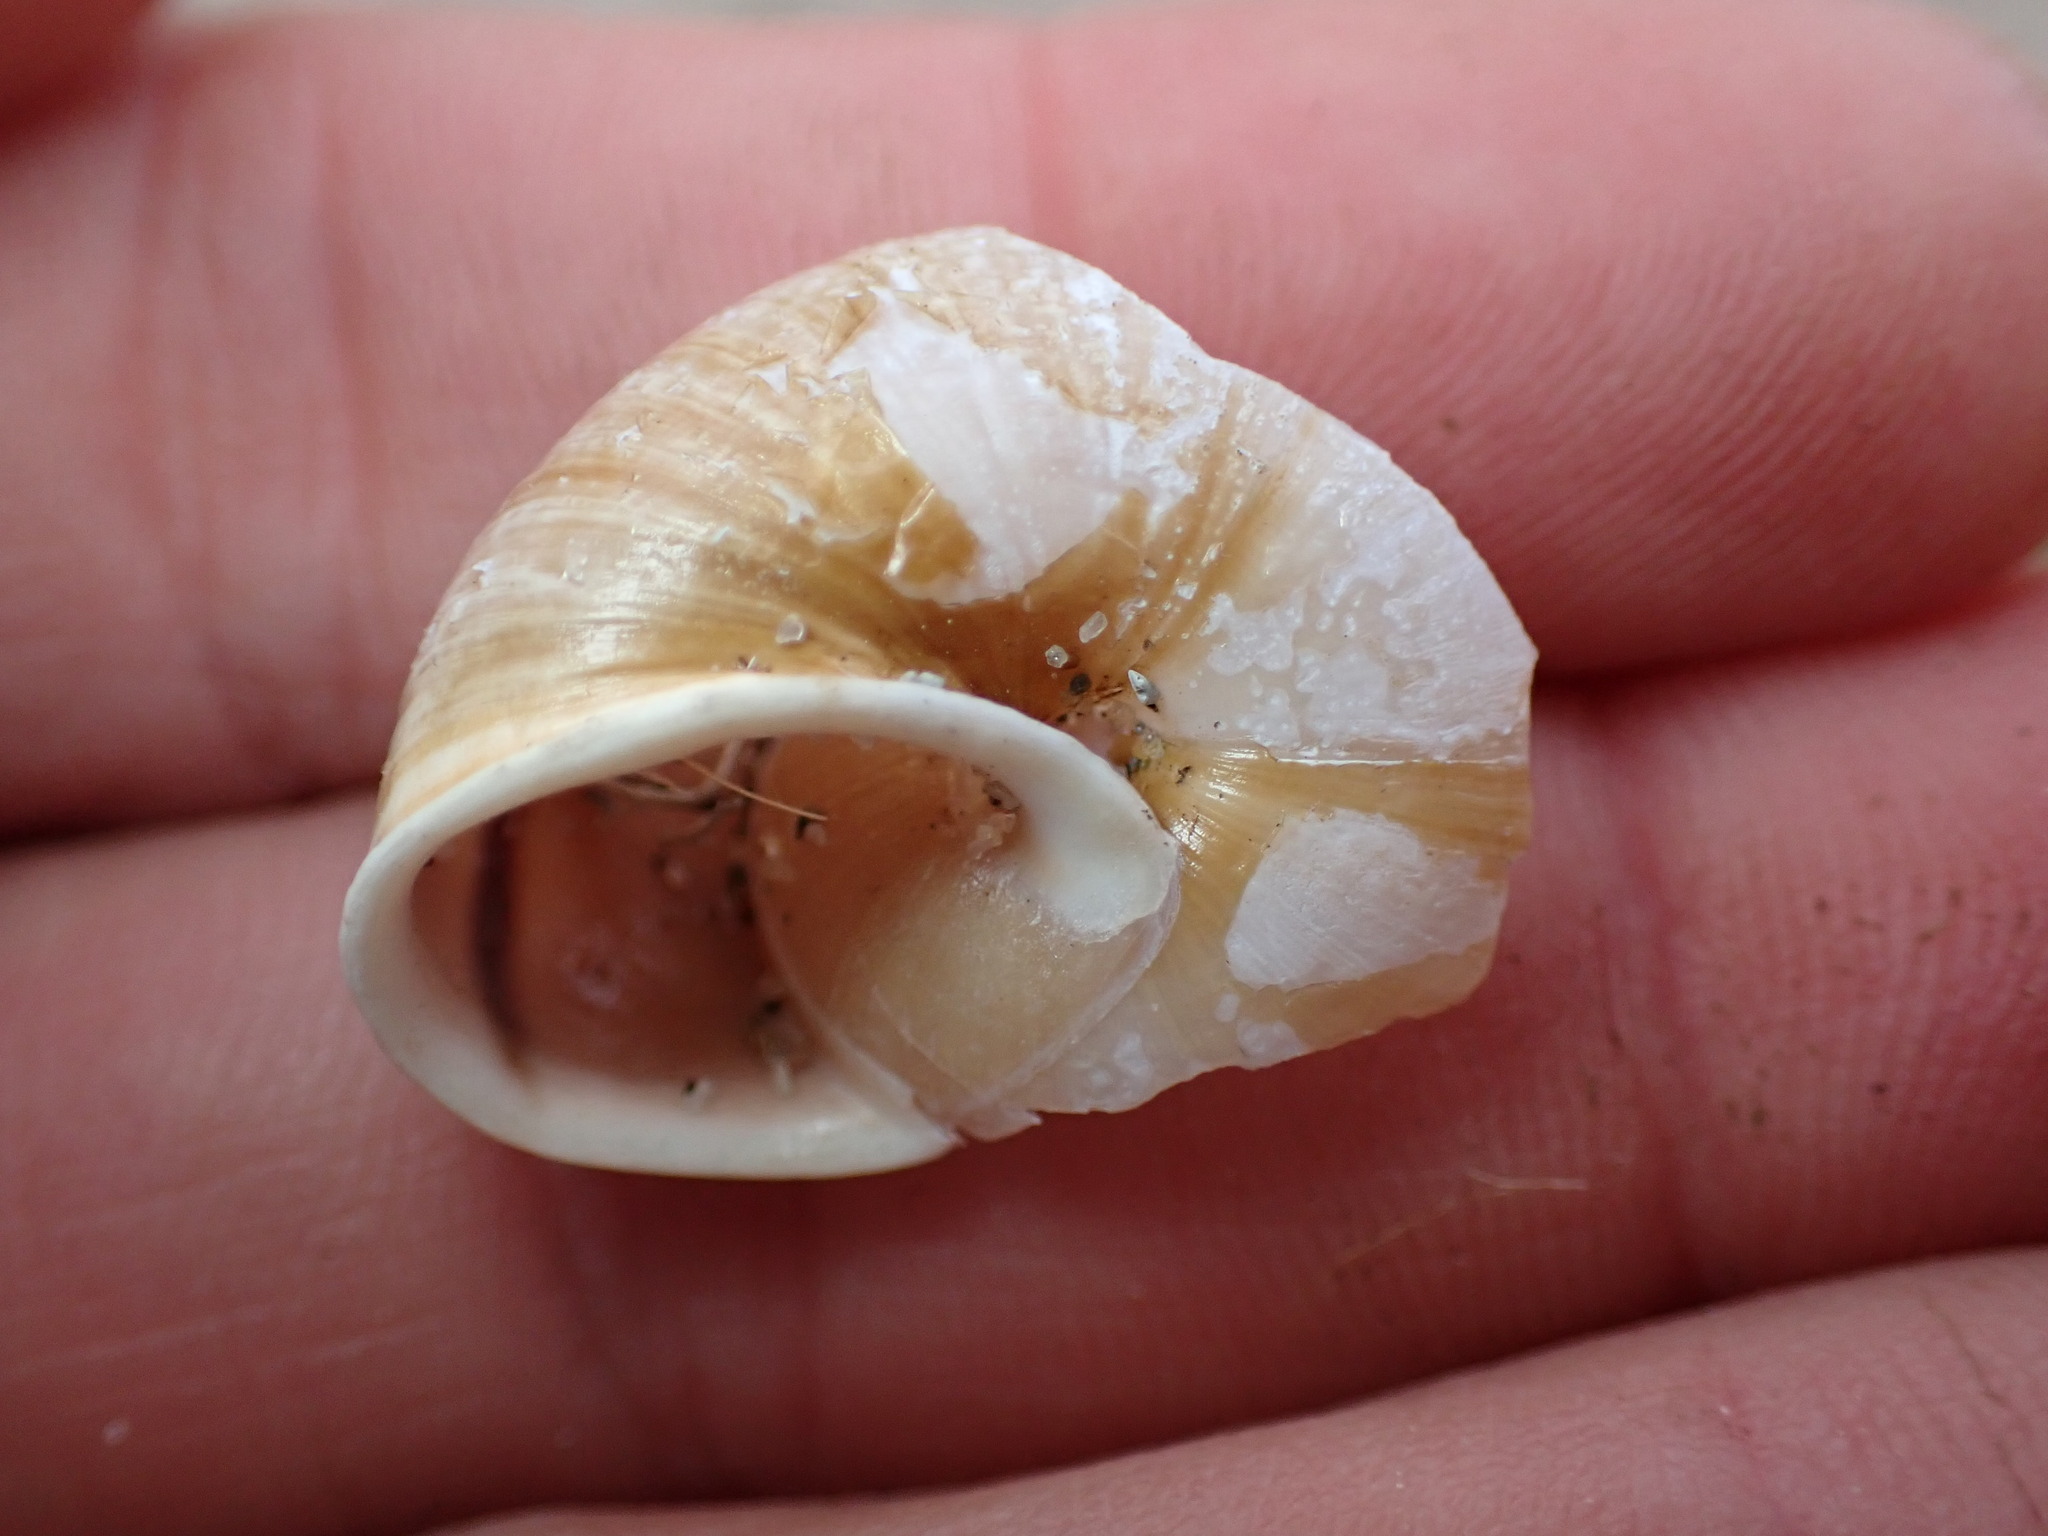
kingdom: Animalia
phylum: Mollusca
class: Gastropoda
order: Stylommatophora
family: Xanthonychidae
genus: Noyo
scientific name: Noyo intersessa
